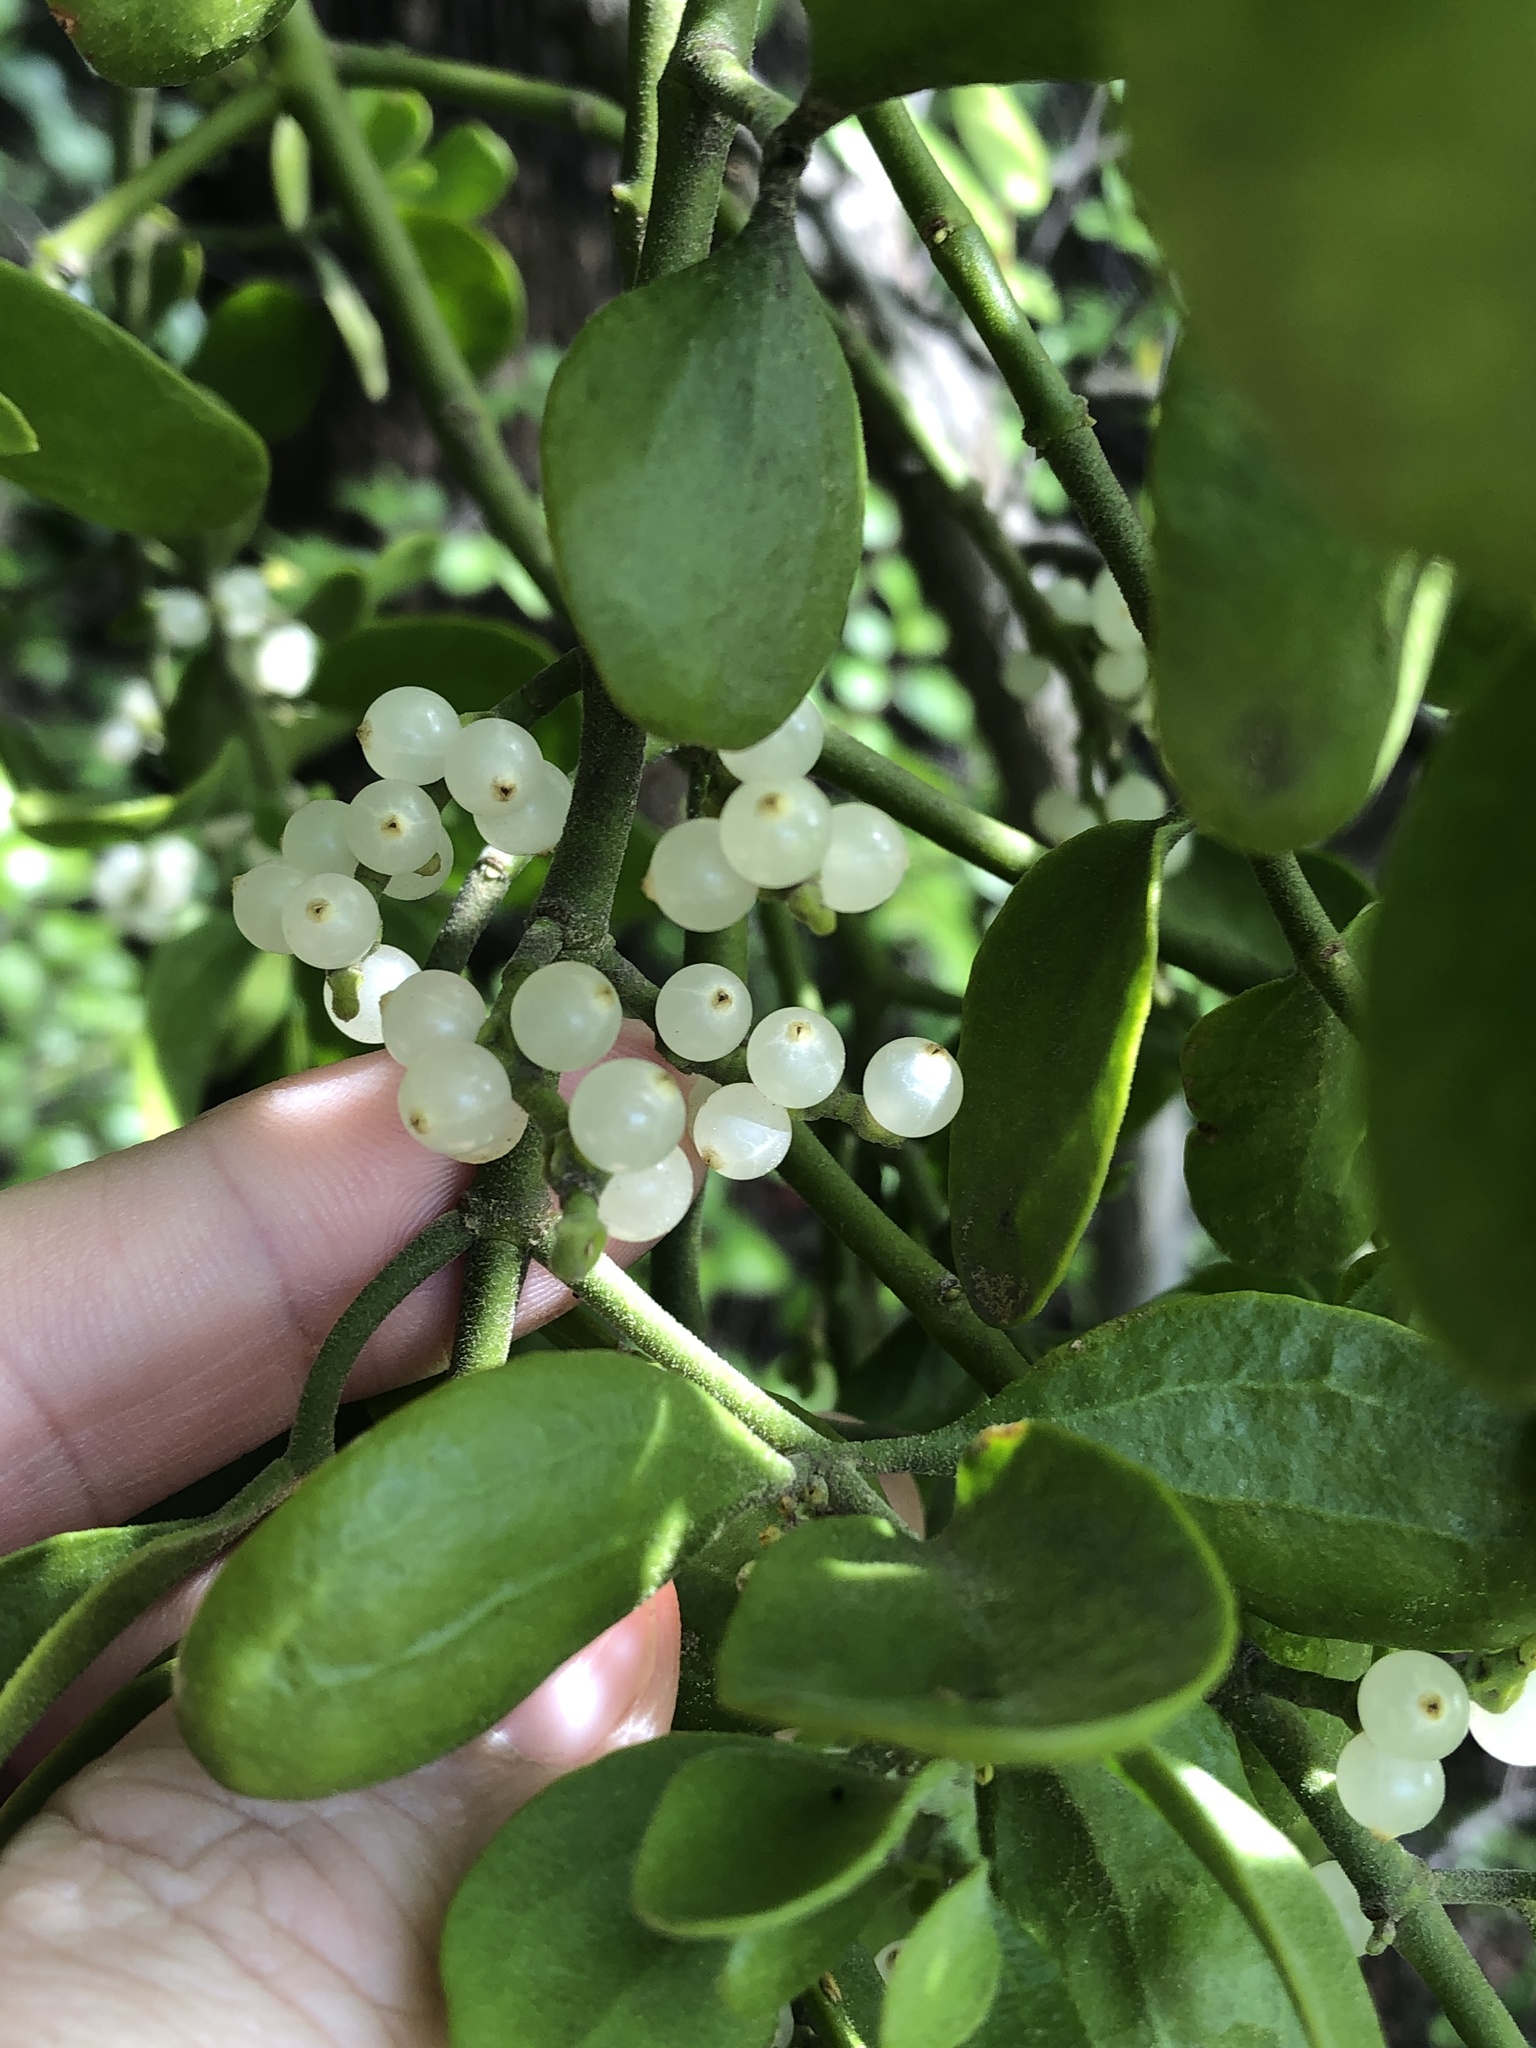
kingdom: Plantae
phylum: Tracheophyta
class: Magnoliopsida
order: Santalales
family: Viscaceae
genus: Phoradendron
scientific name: Phoradendron leucarpum
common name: Pacific mistletoe
